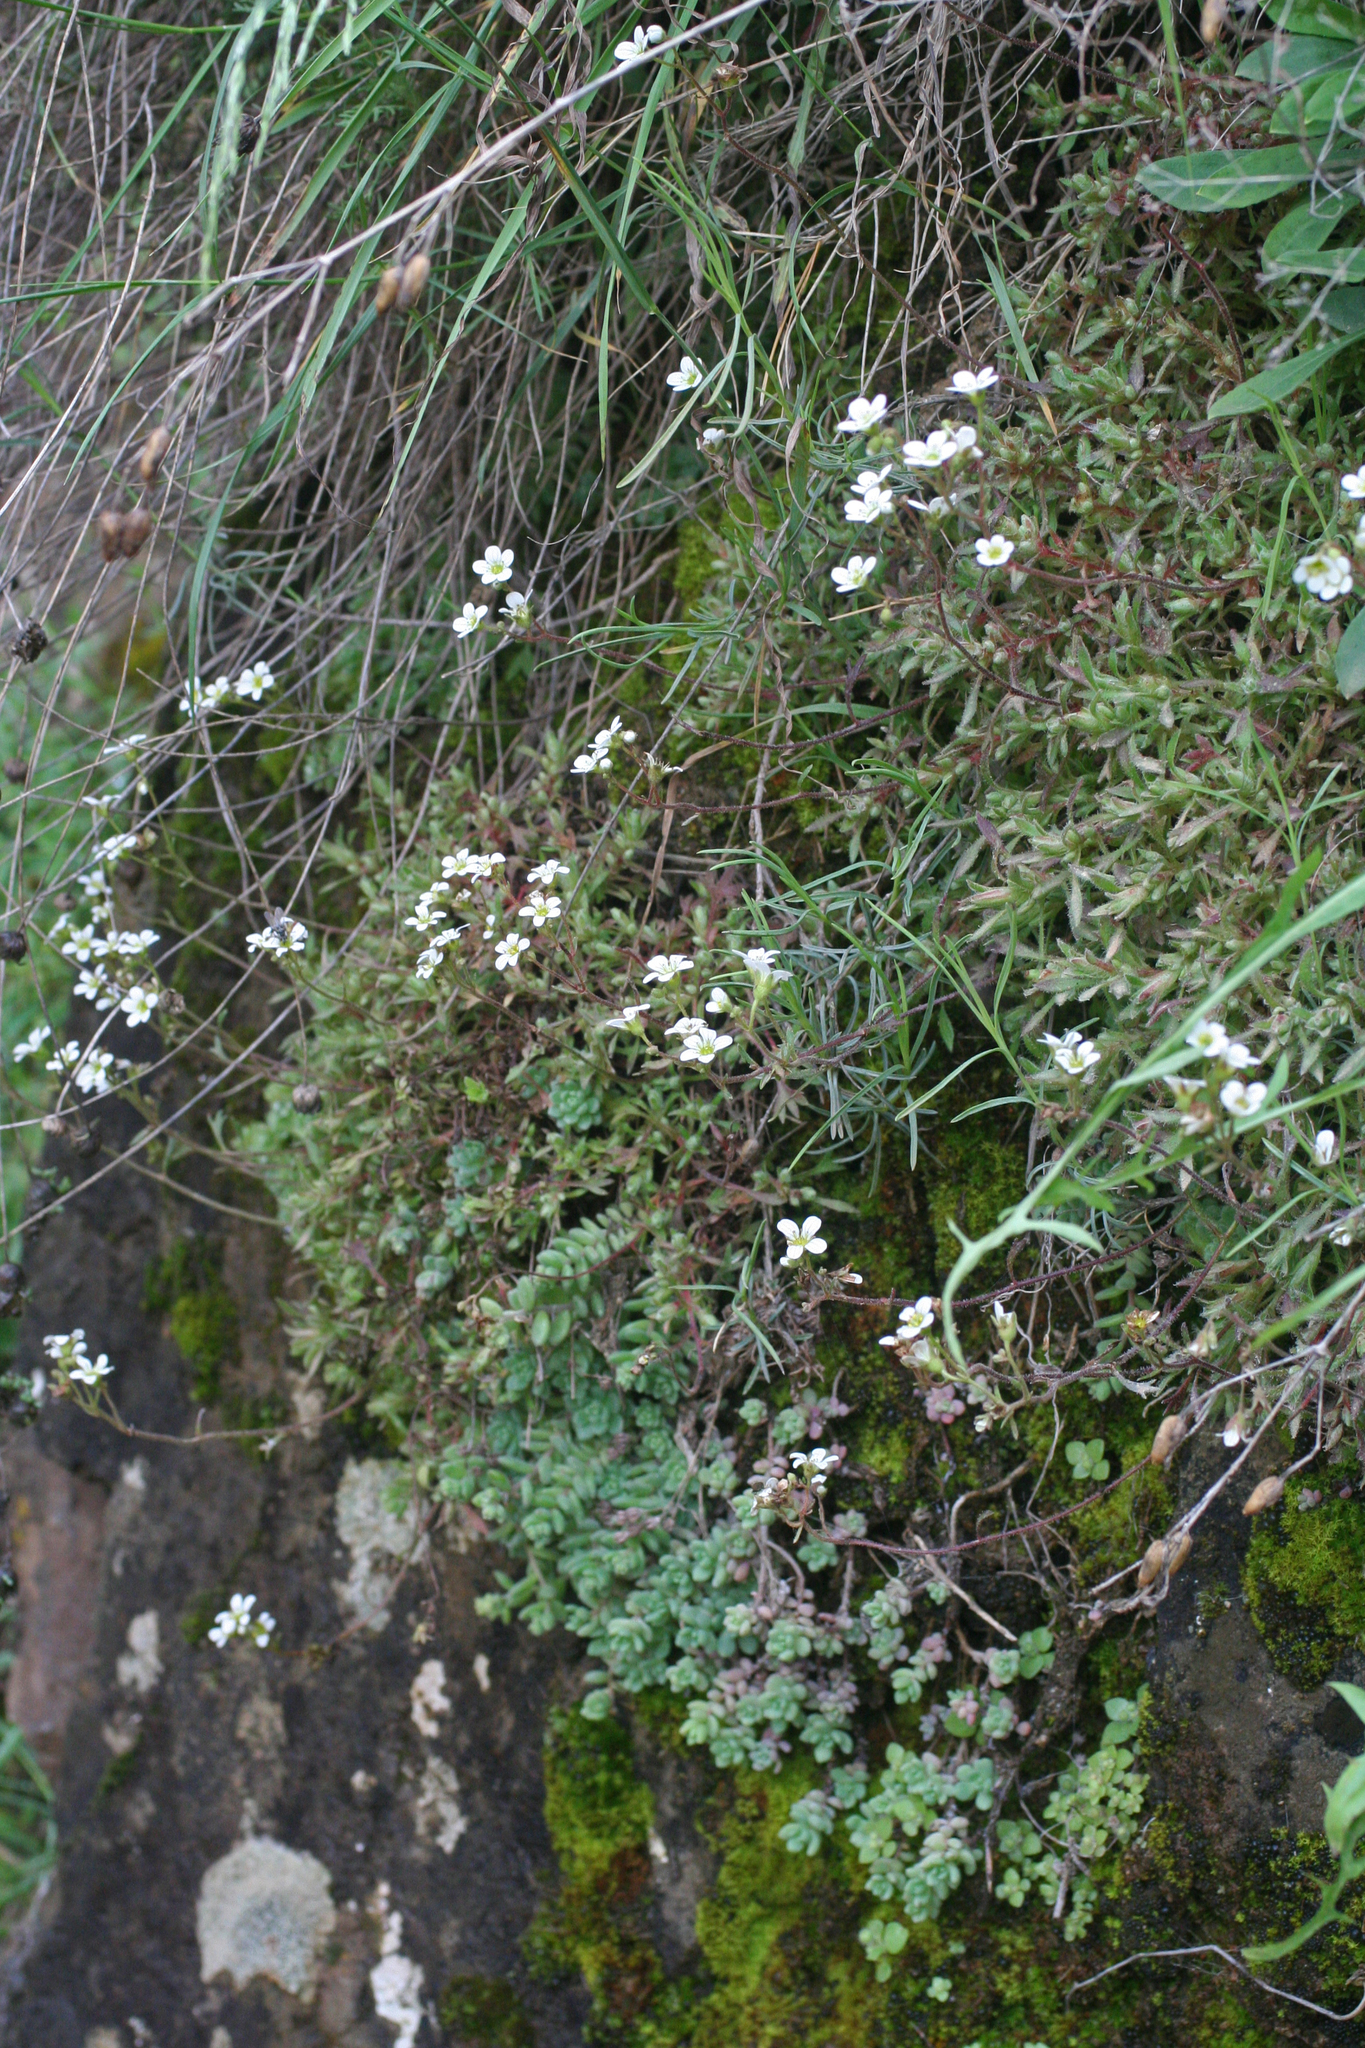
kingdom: Plantae
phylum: Tracheophyta
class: Magnoliopsida
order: Saxifragales
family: Crassulaceae
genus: Sedum
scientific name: Sedum dasyphyllum
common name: Thick-leaf stonecrop
